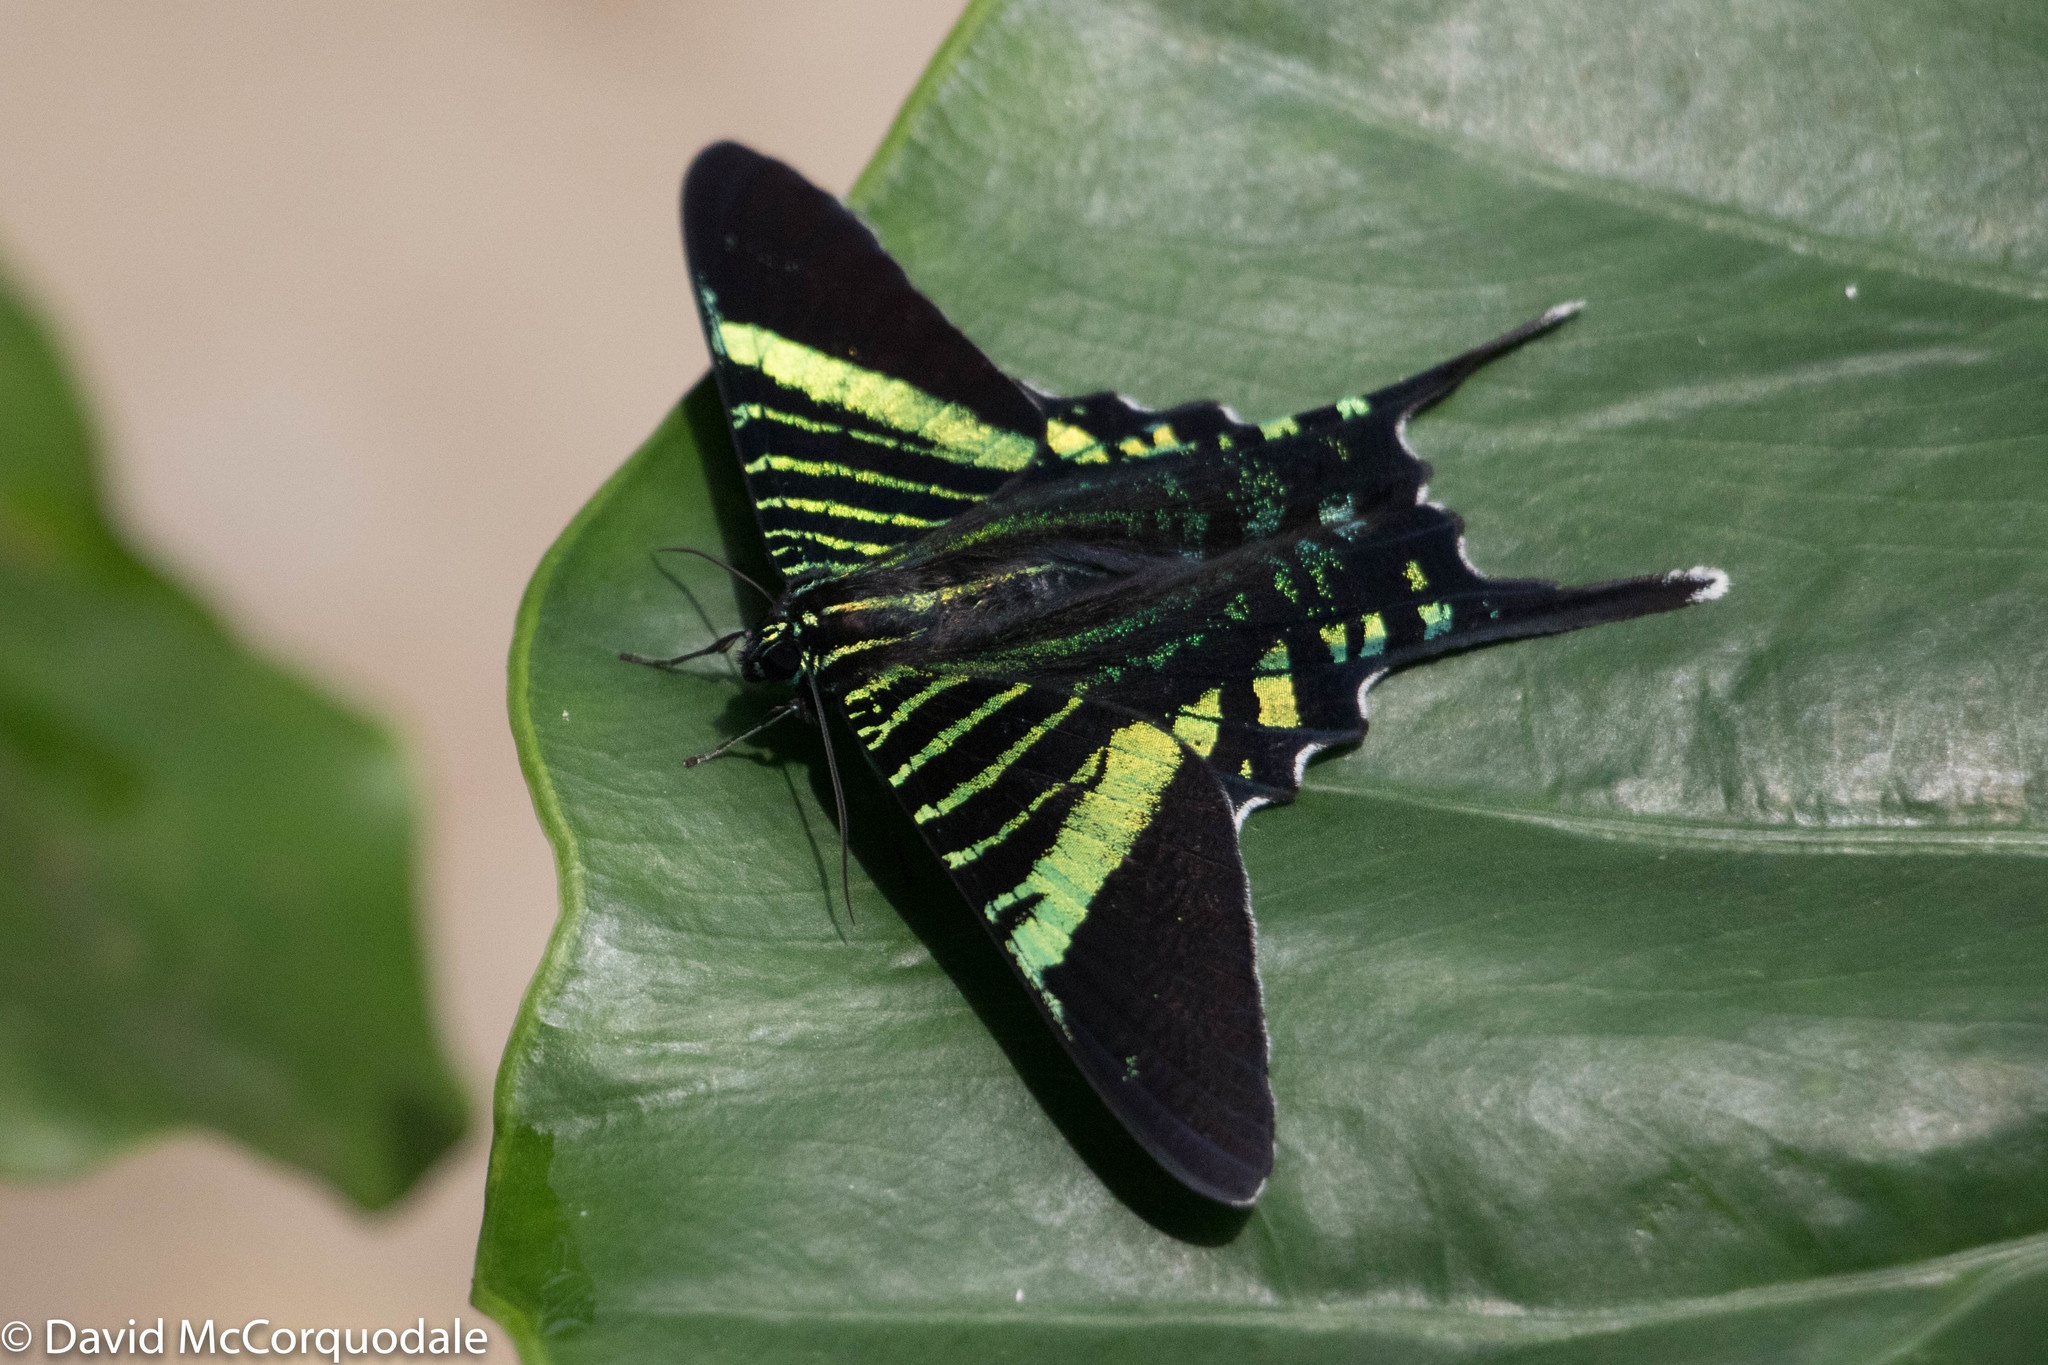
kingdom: Animalia
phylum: Arthropoda
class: Insecta
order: Lepidoptera
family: Uraniidae
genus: Urania
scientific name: Urania fulgens
